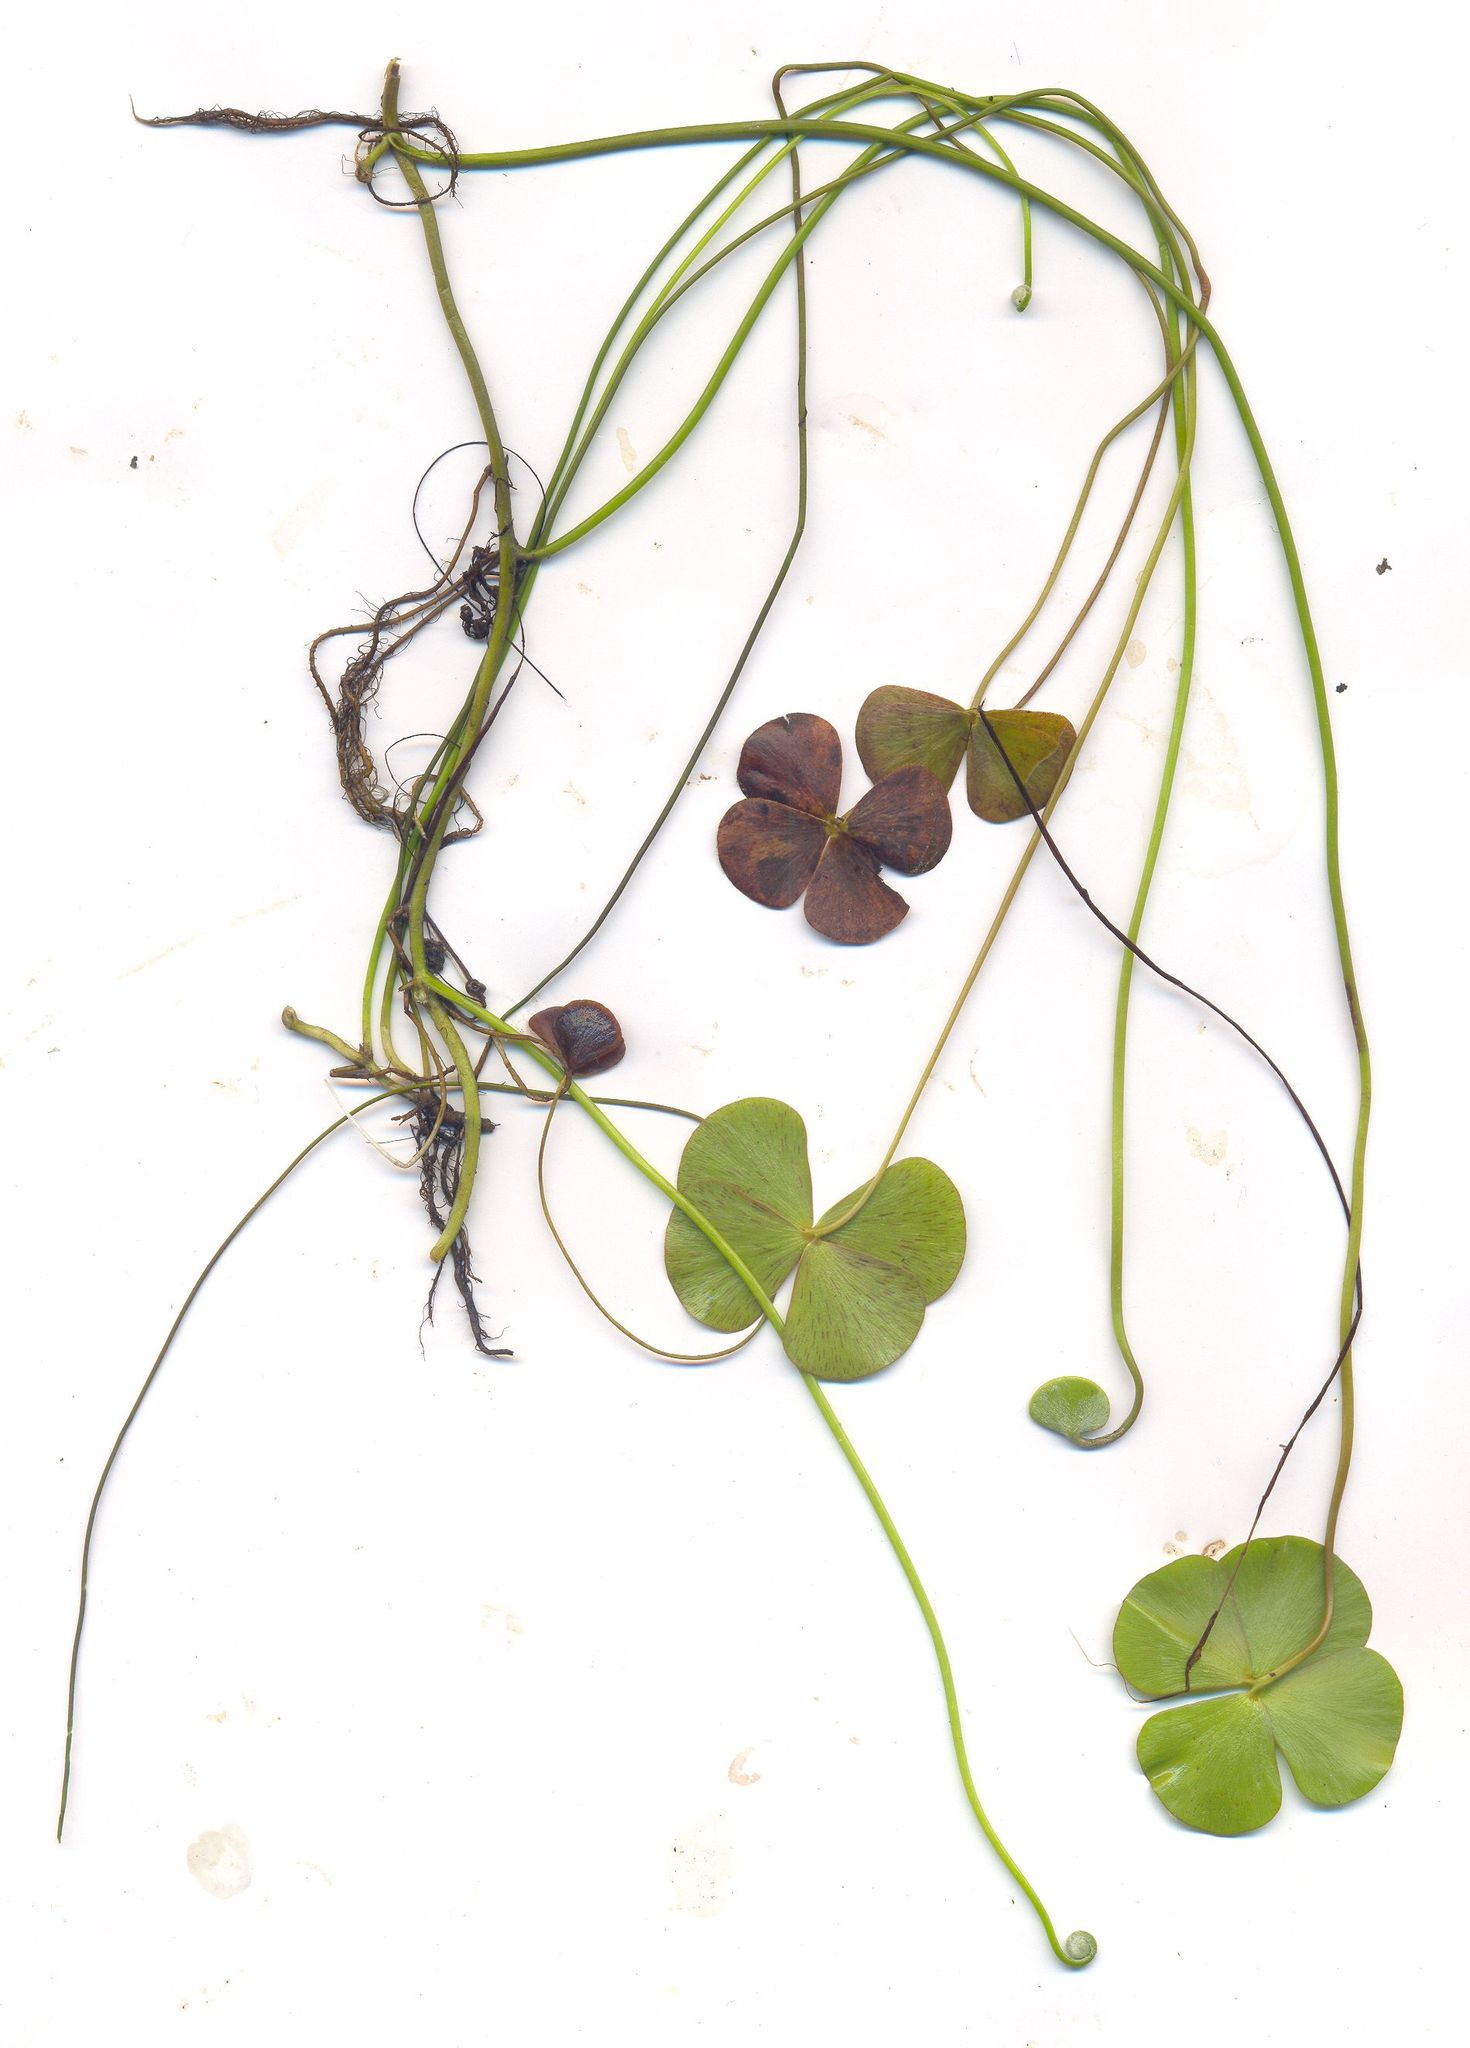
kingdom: Plantae
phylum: Tracheophyta
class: Polypodiopsida
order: Salviniales
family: Marsileaceae
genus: Marsilea
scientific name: Marsilea mollis
